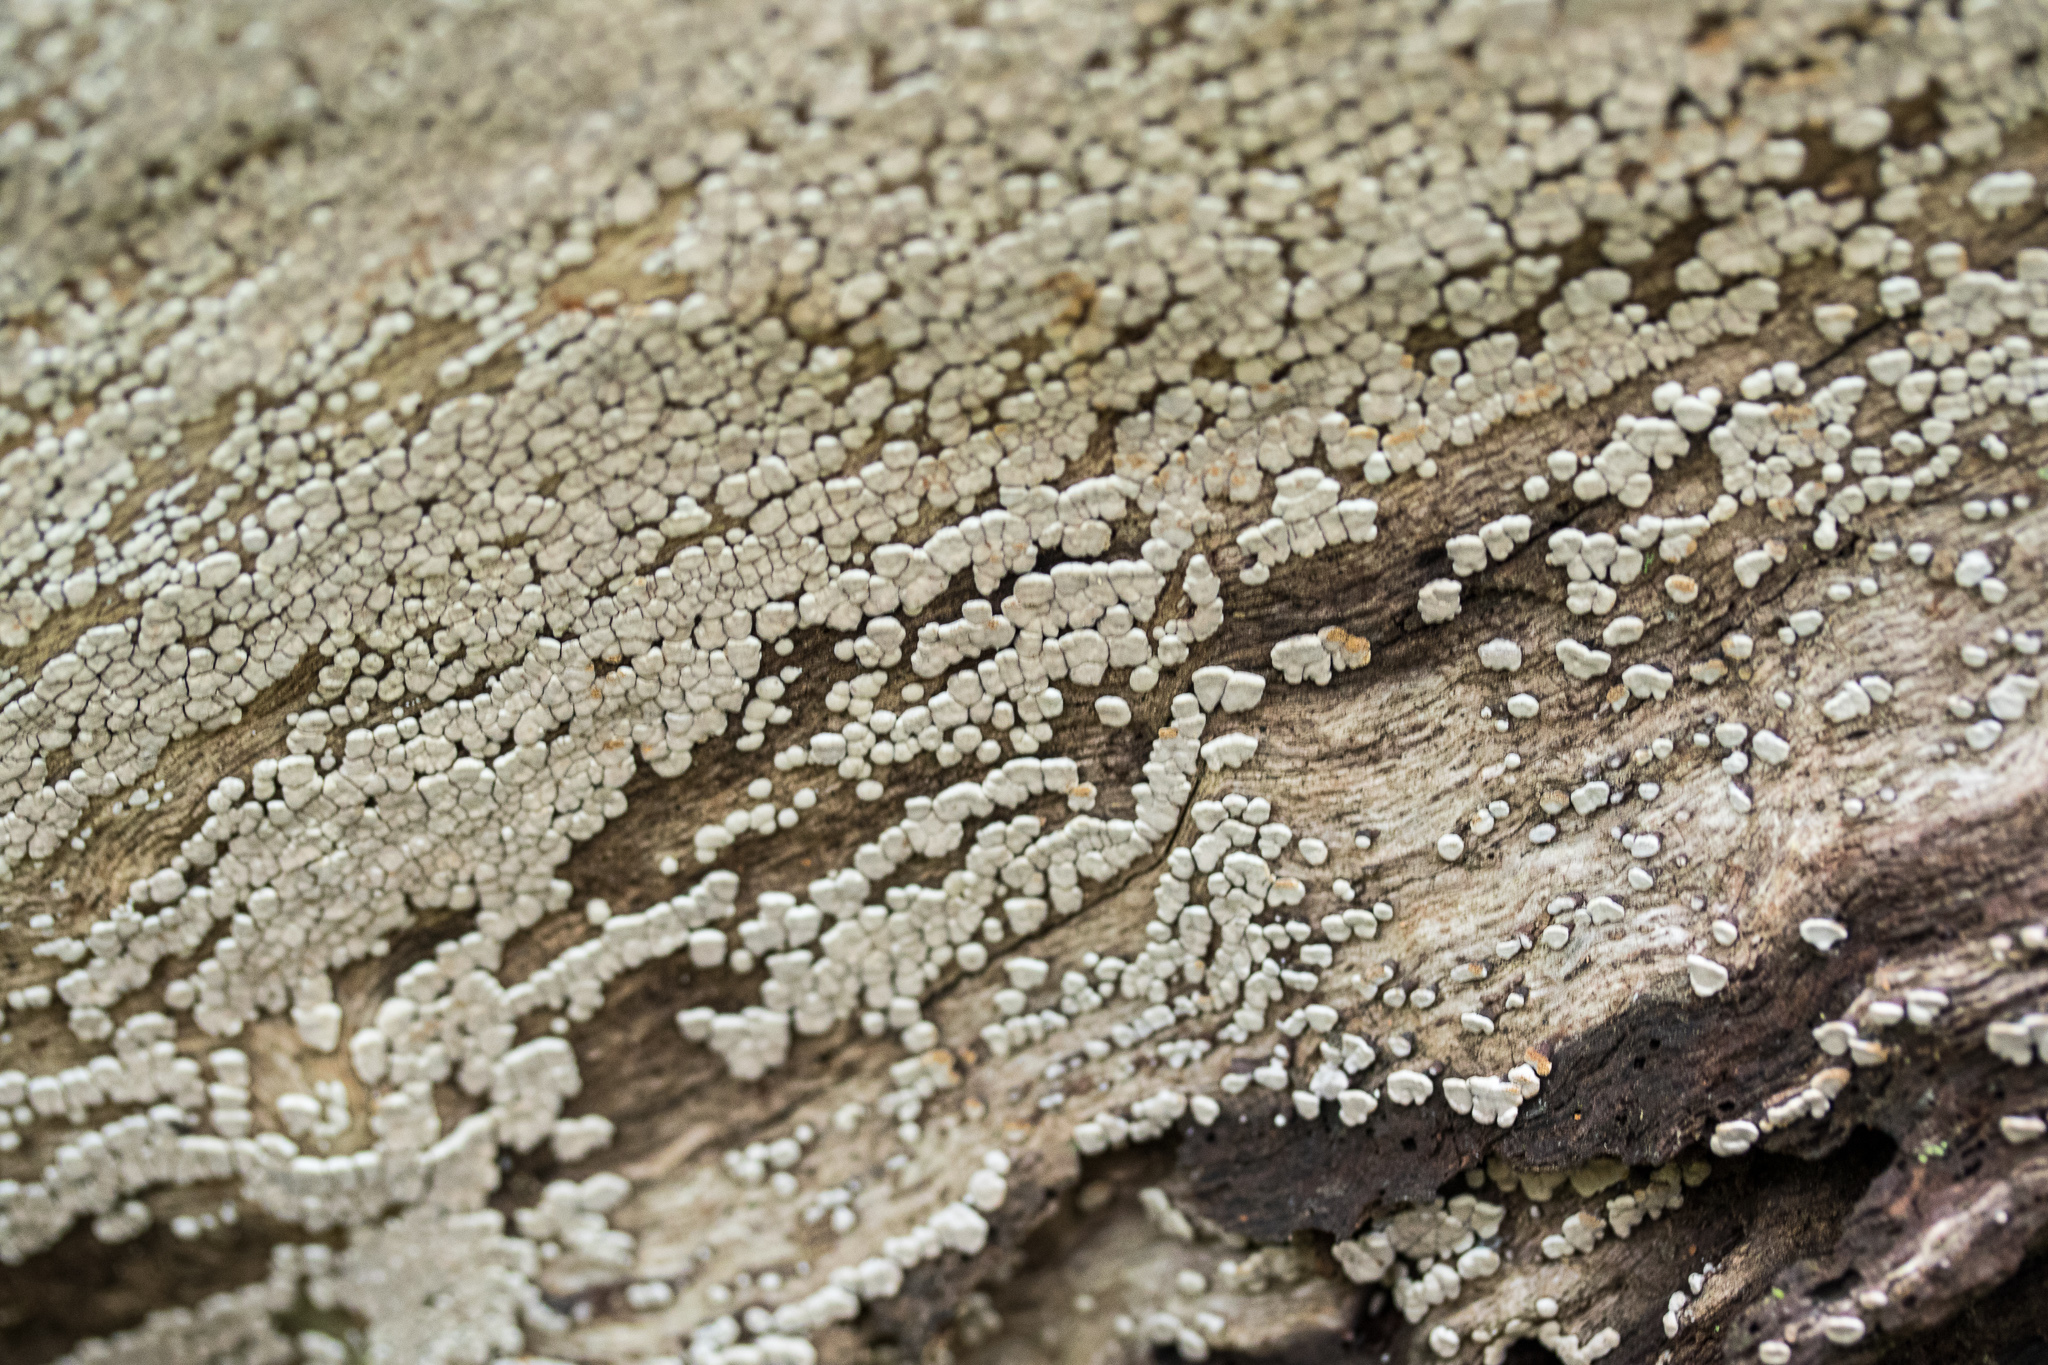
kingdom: Fungi
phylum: Basidiomycota
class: Agaricomycetes
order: Russulales
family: Stereaceae
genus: Xylobolus
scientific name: Xylobolus frustulatus
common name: Ceramic parchment
